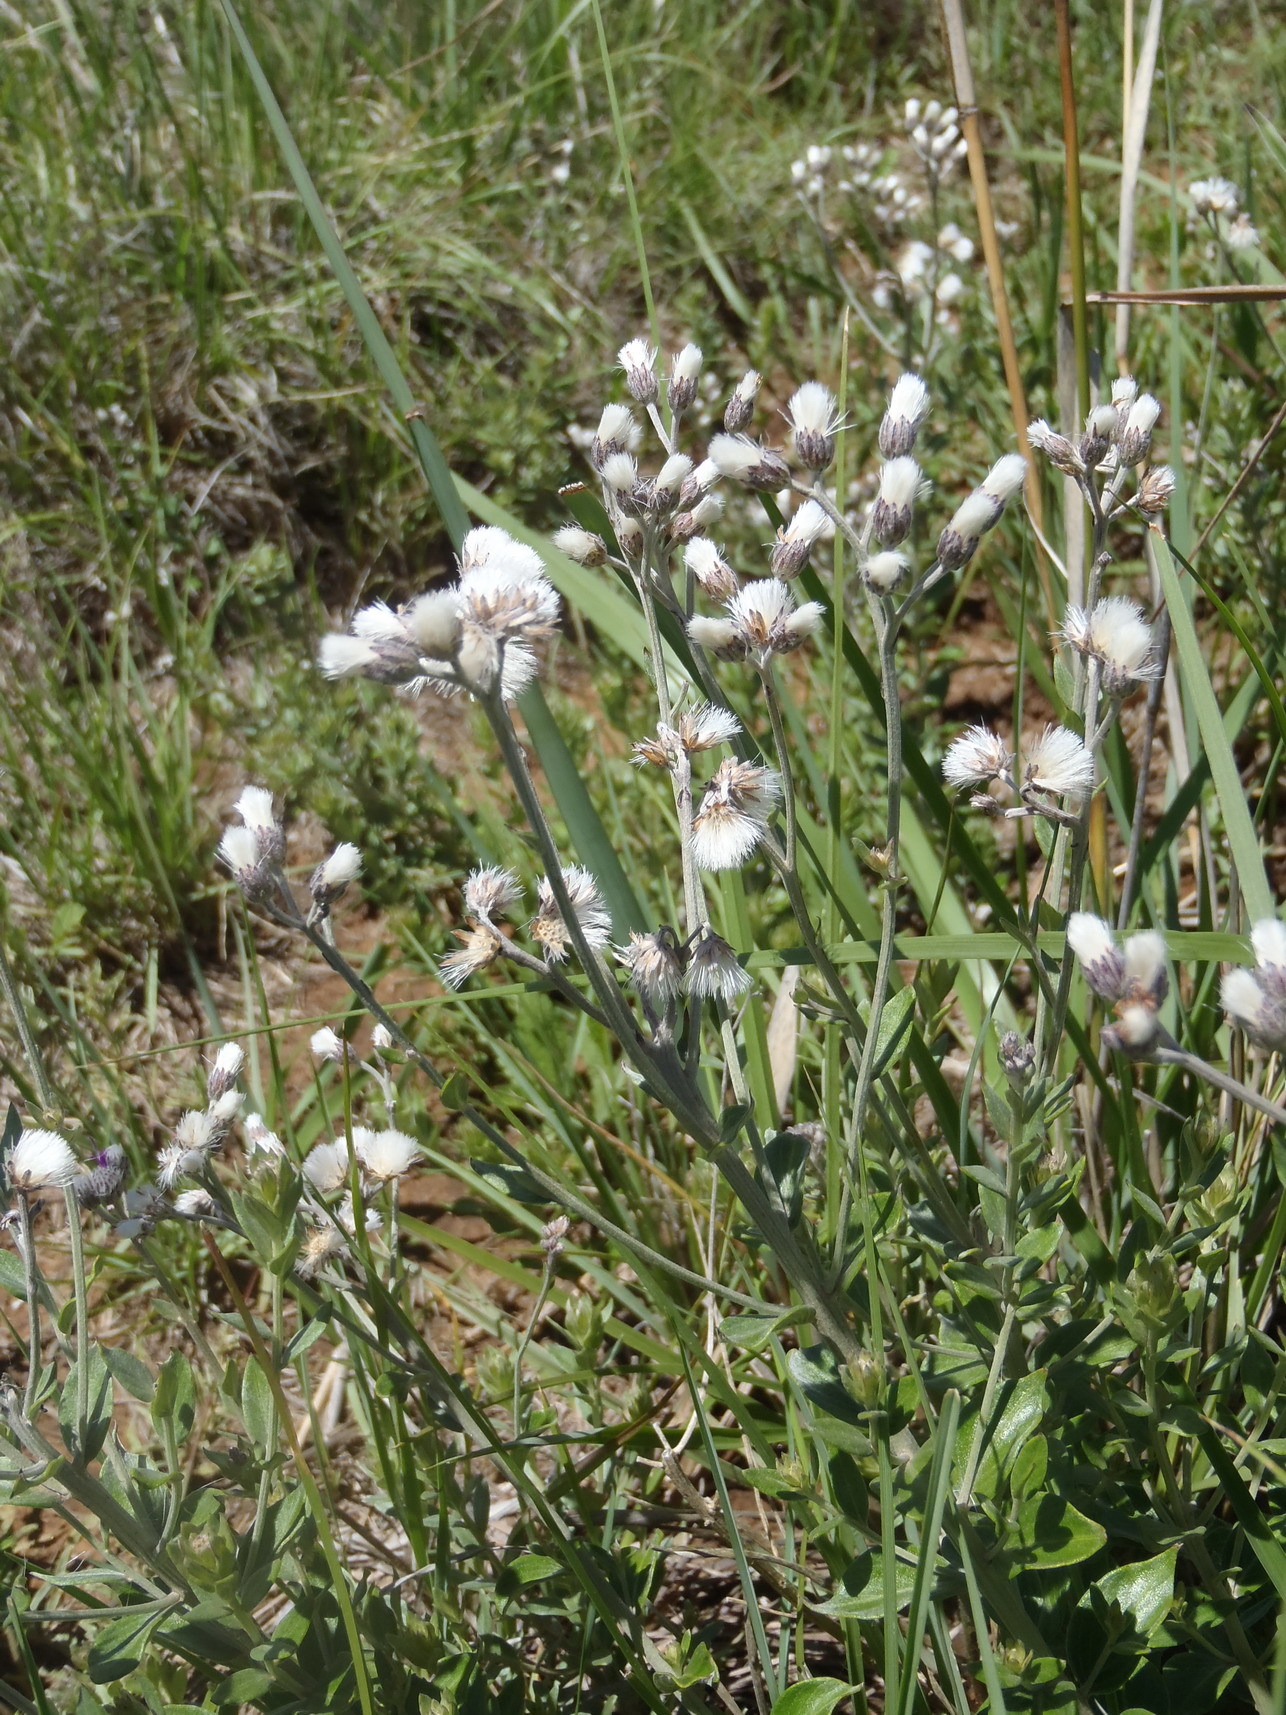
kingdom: Plantae
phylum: Tracheophyta
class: Magnoliopsida
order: Asterales
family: Asteraceae
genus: Hilliardiella
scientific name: Hilliardiella oligocephala
